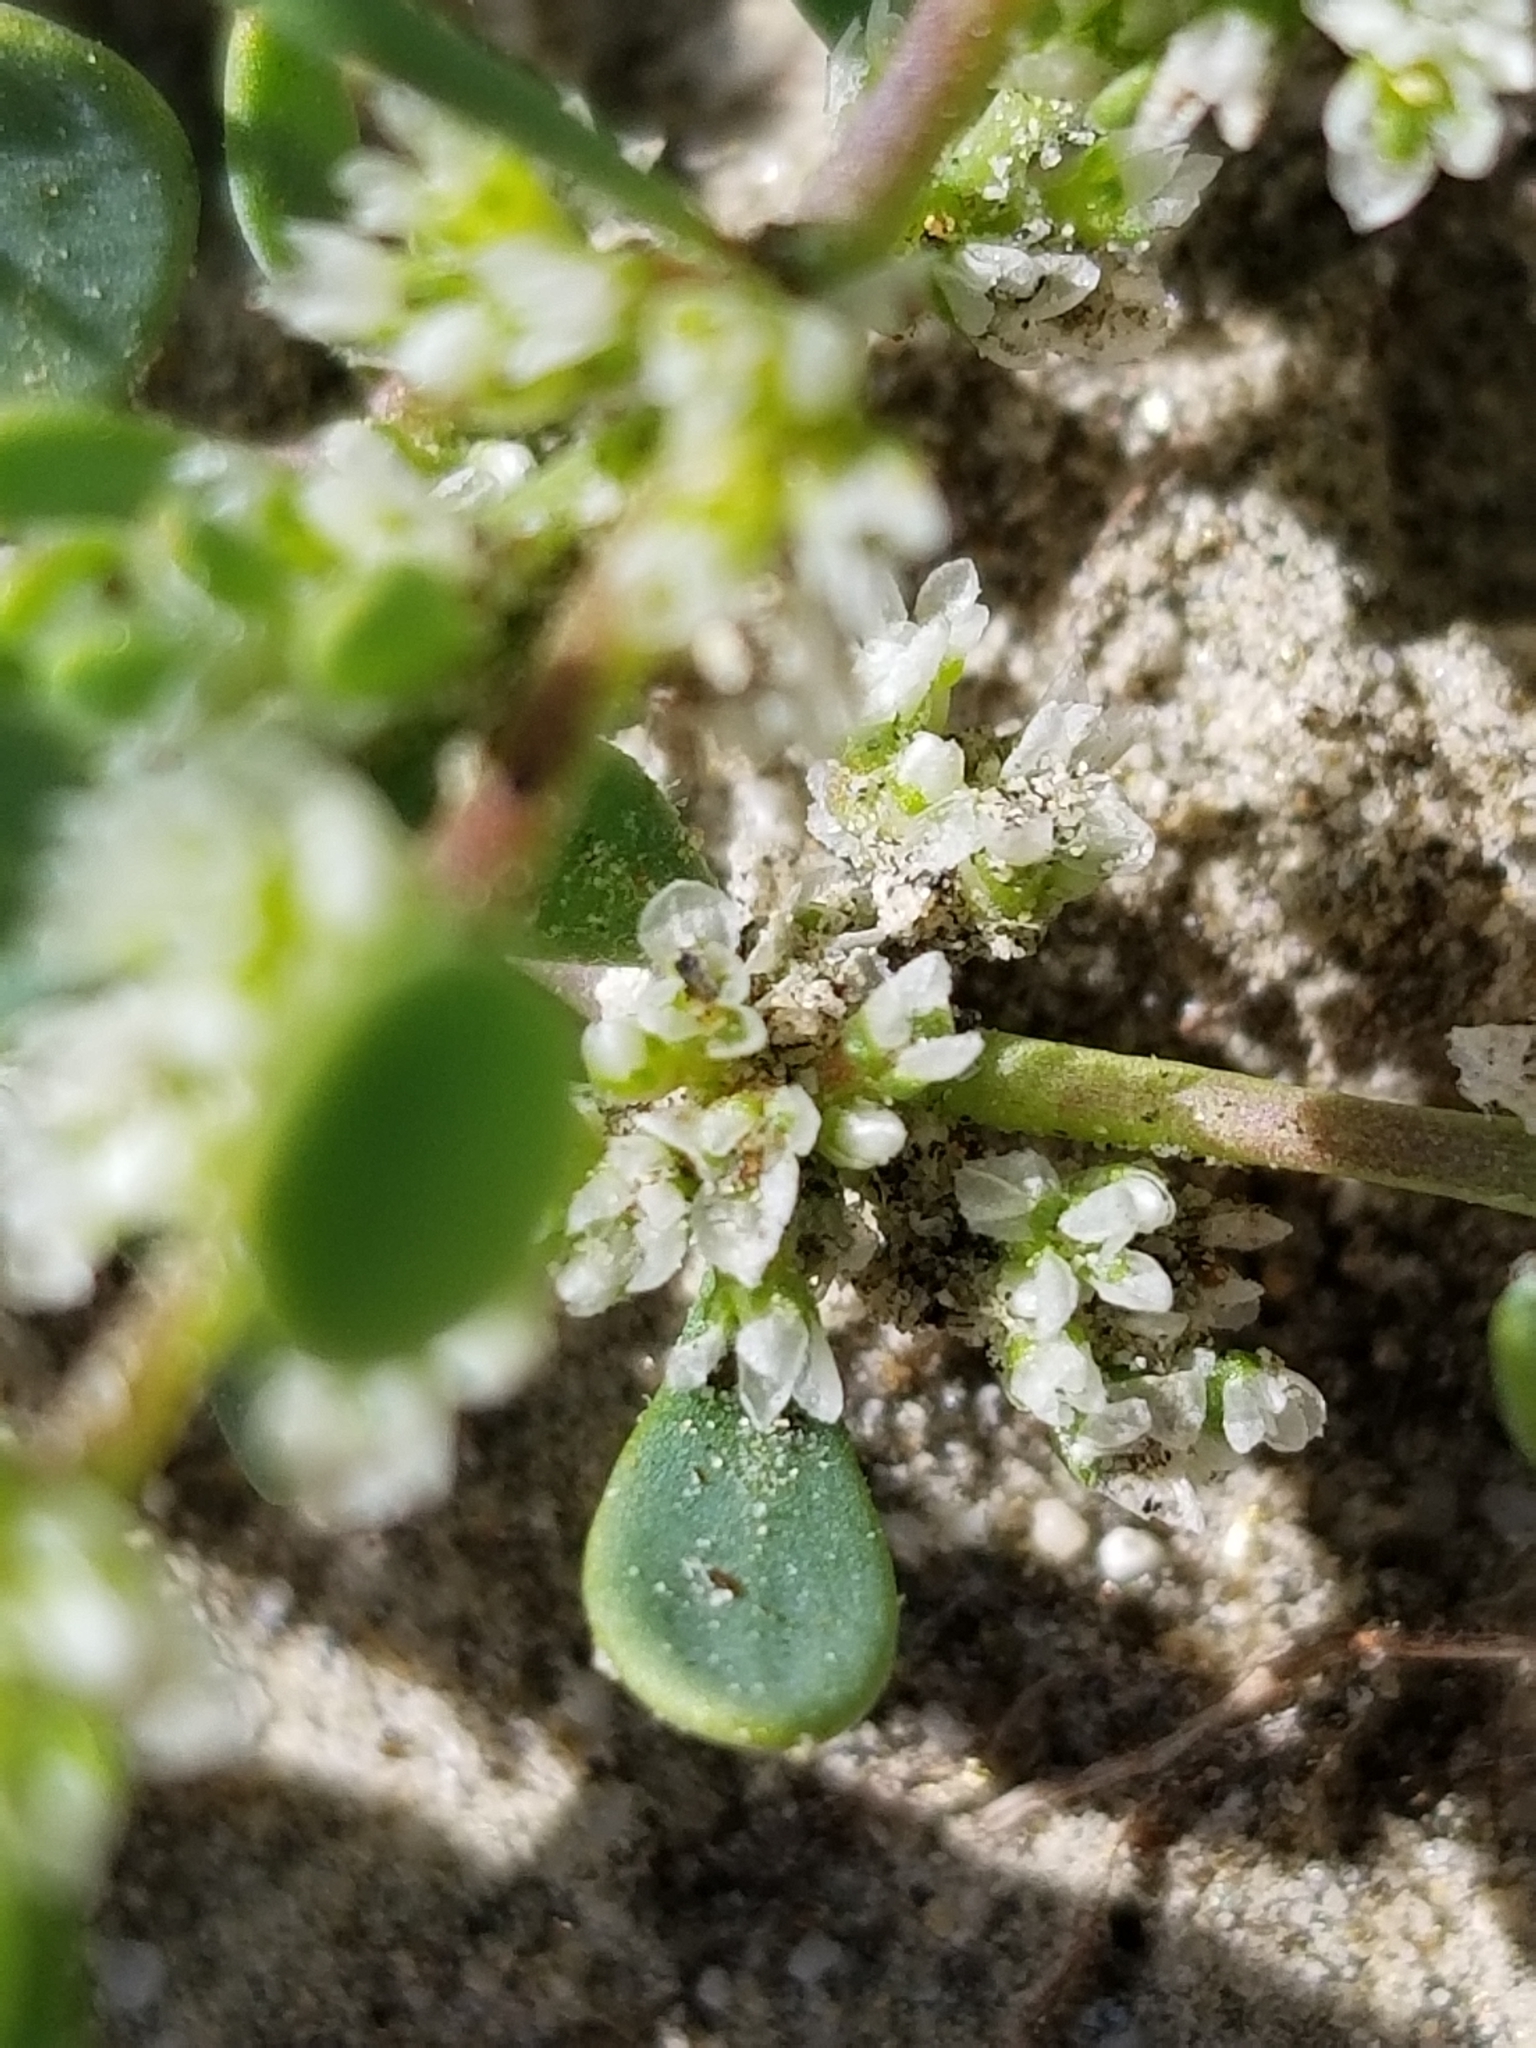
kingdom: Plantae
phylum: Tracheophyta
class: Magnoliopsida
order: Caryophyllales
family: Caryophyllaceae
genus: Achyronychia
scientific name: Achyronychia cooperi
